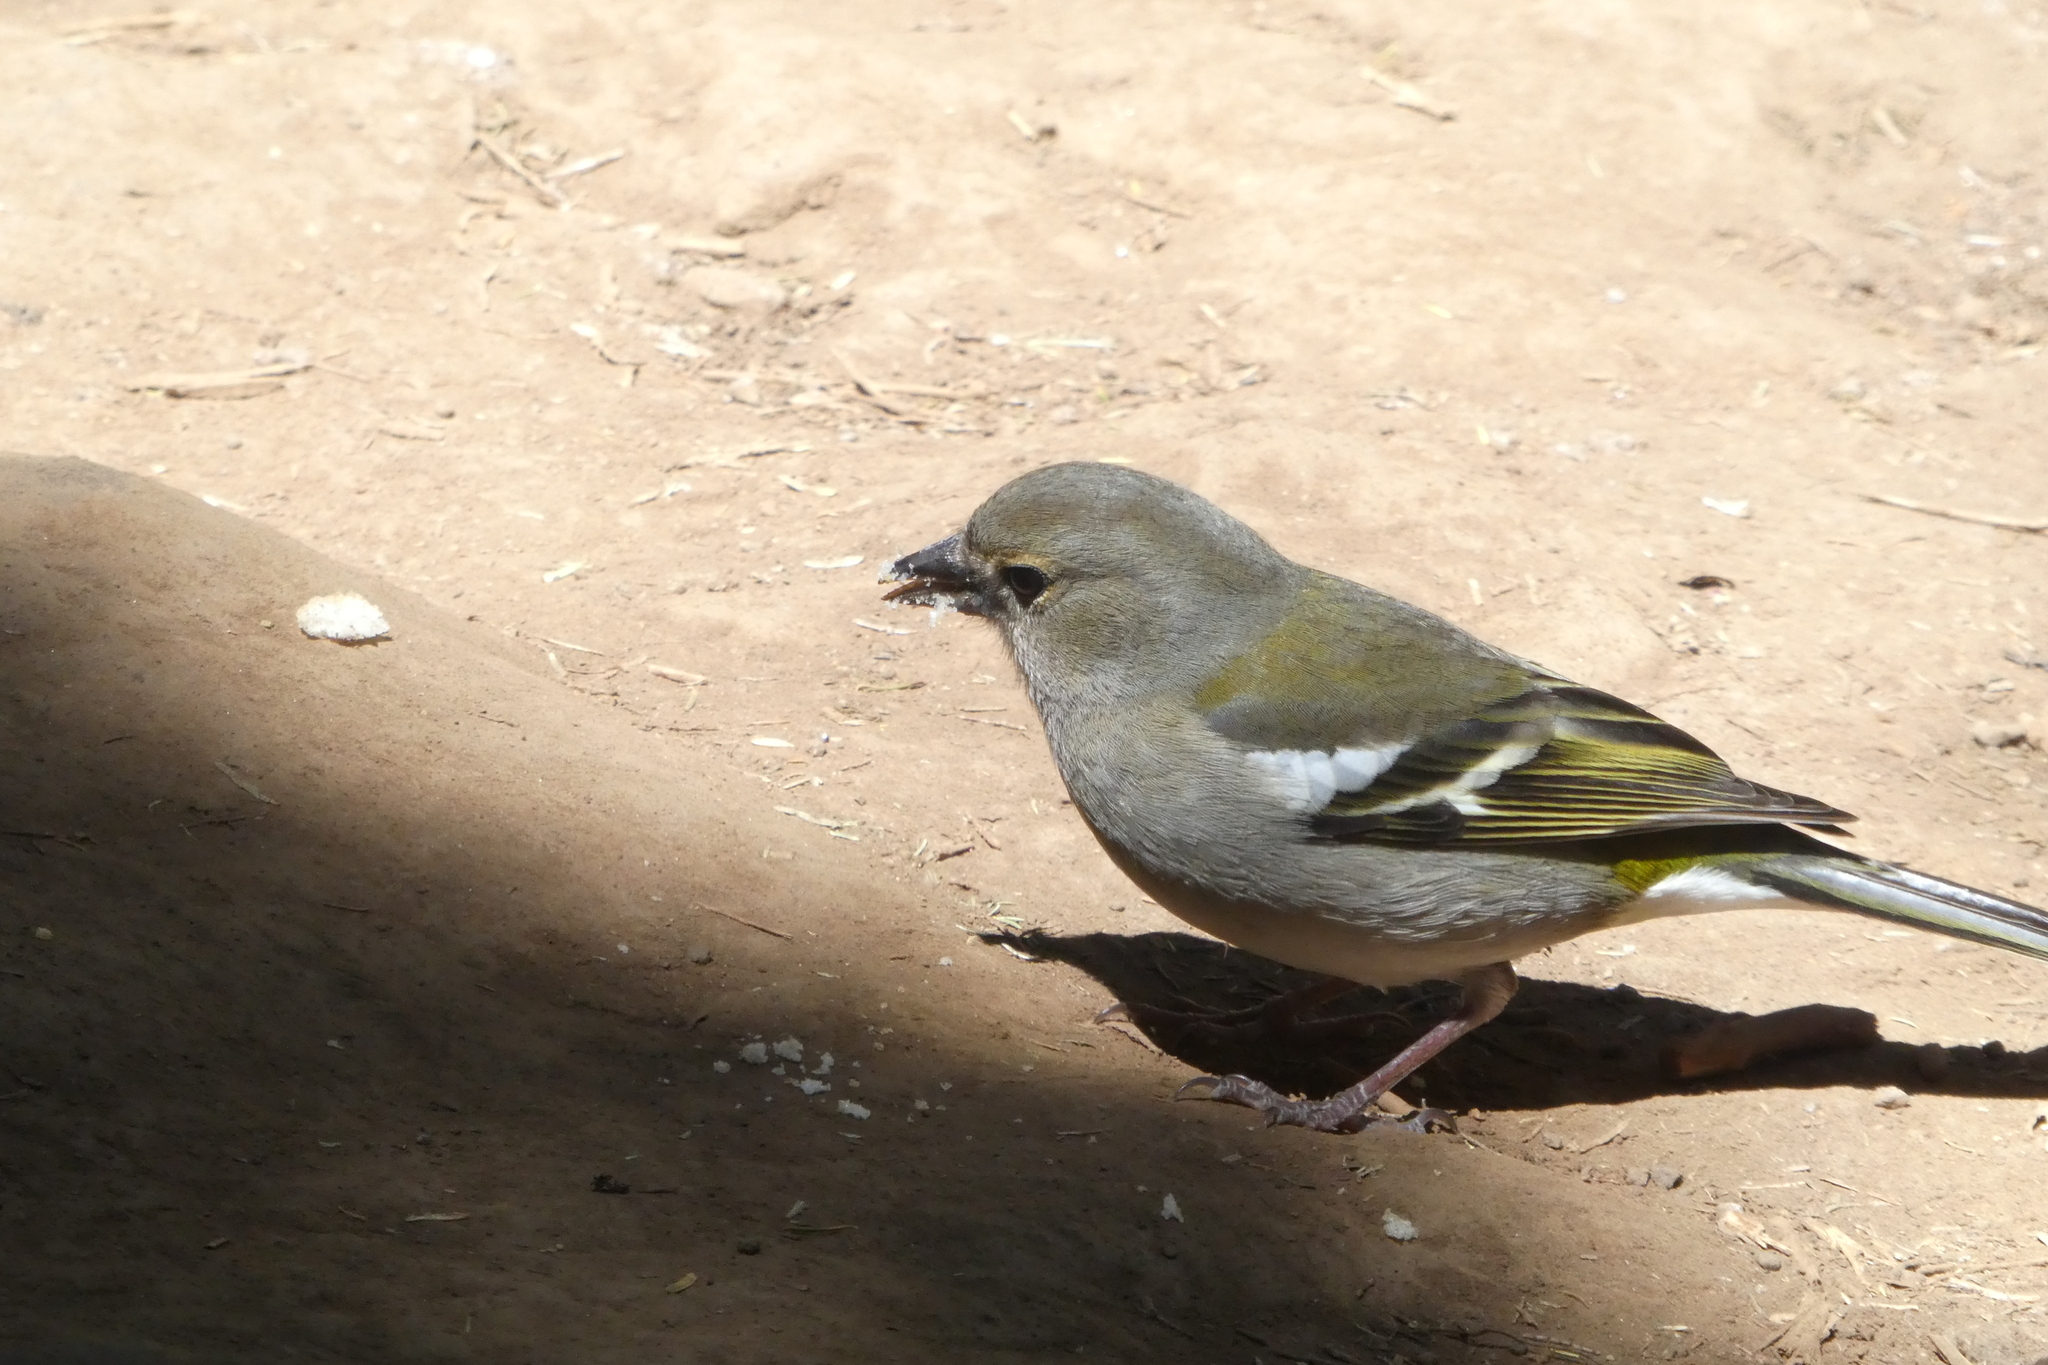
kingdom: Animalia
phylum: Chordata
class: Aves
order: Passeriformes
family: Fringillidae
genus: Fringilla
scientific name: Fringilla maderensis
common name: Madeira chaffinch
